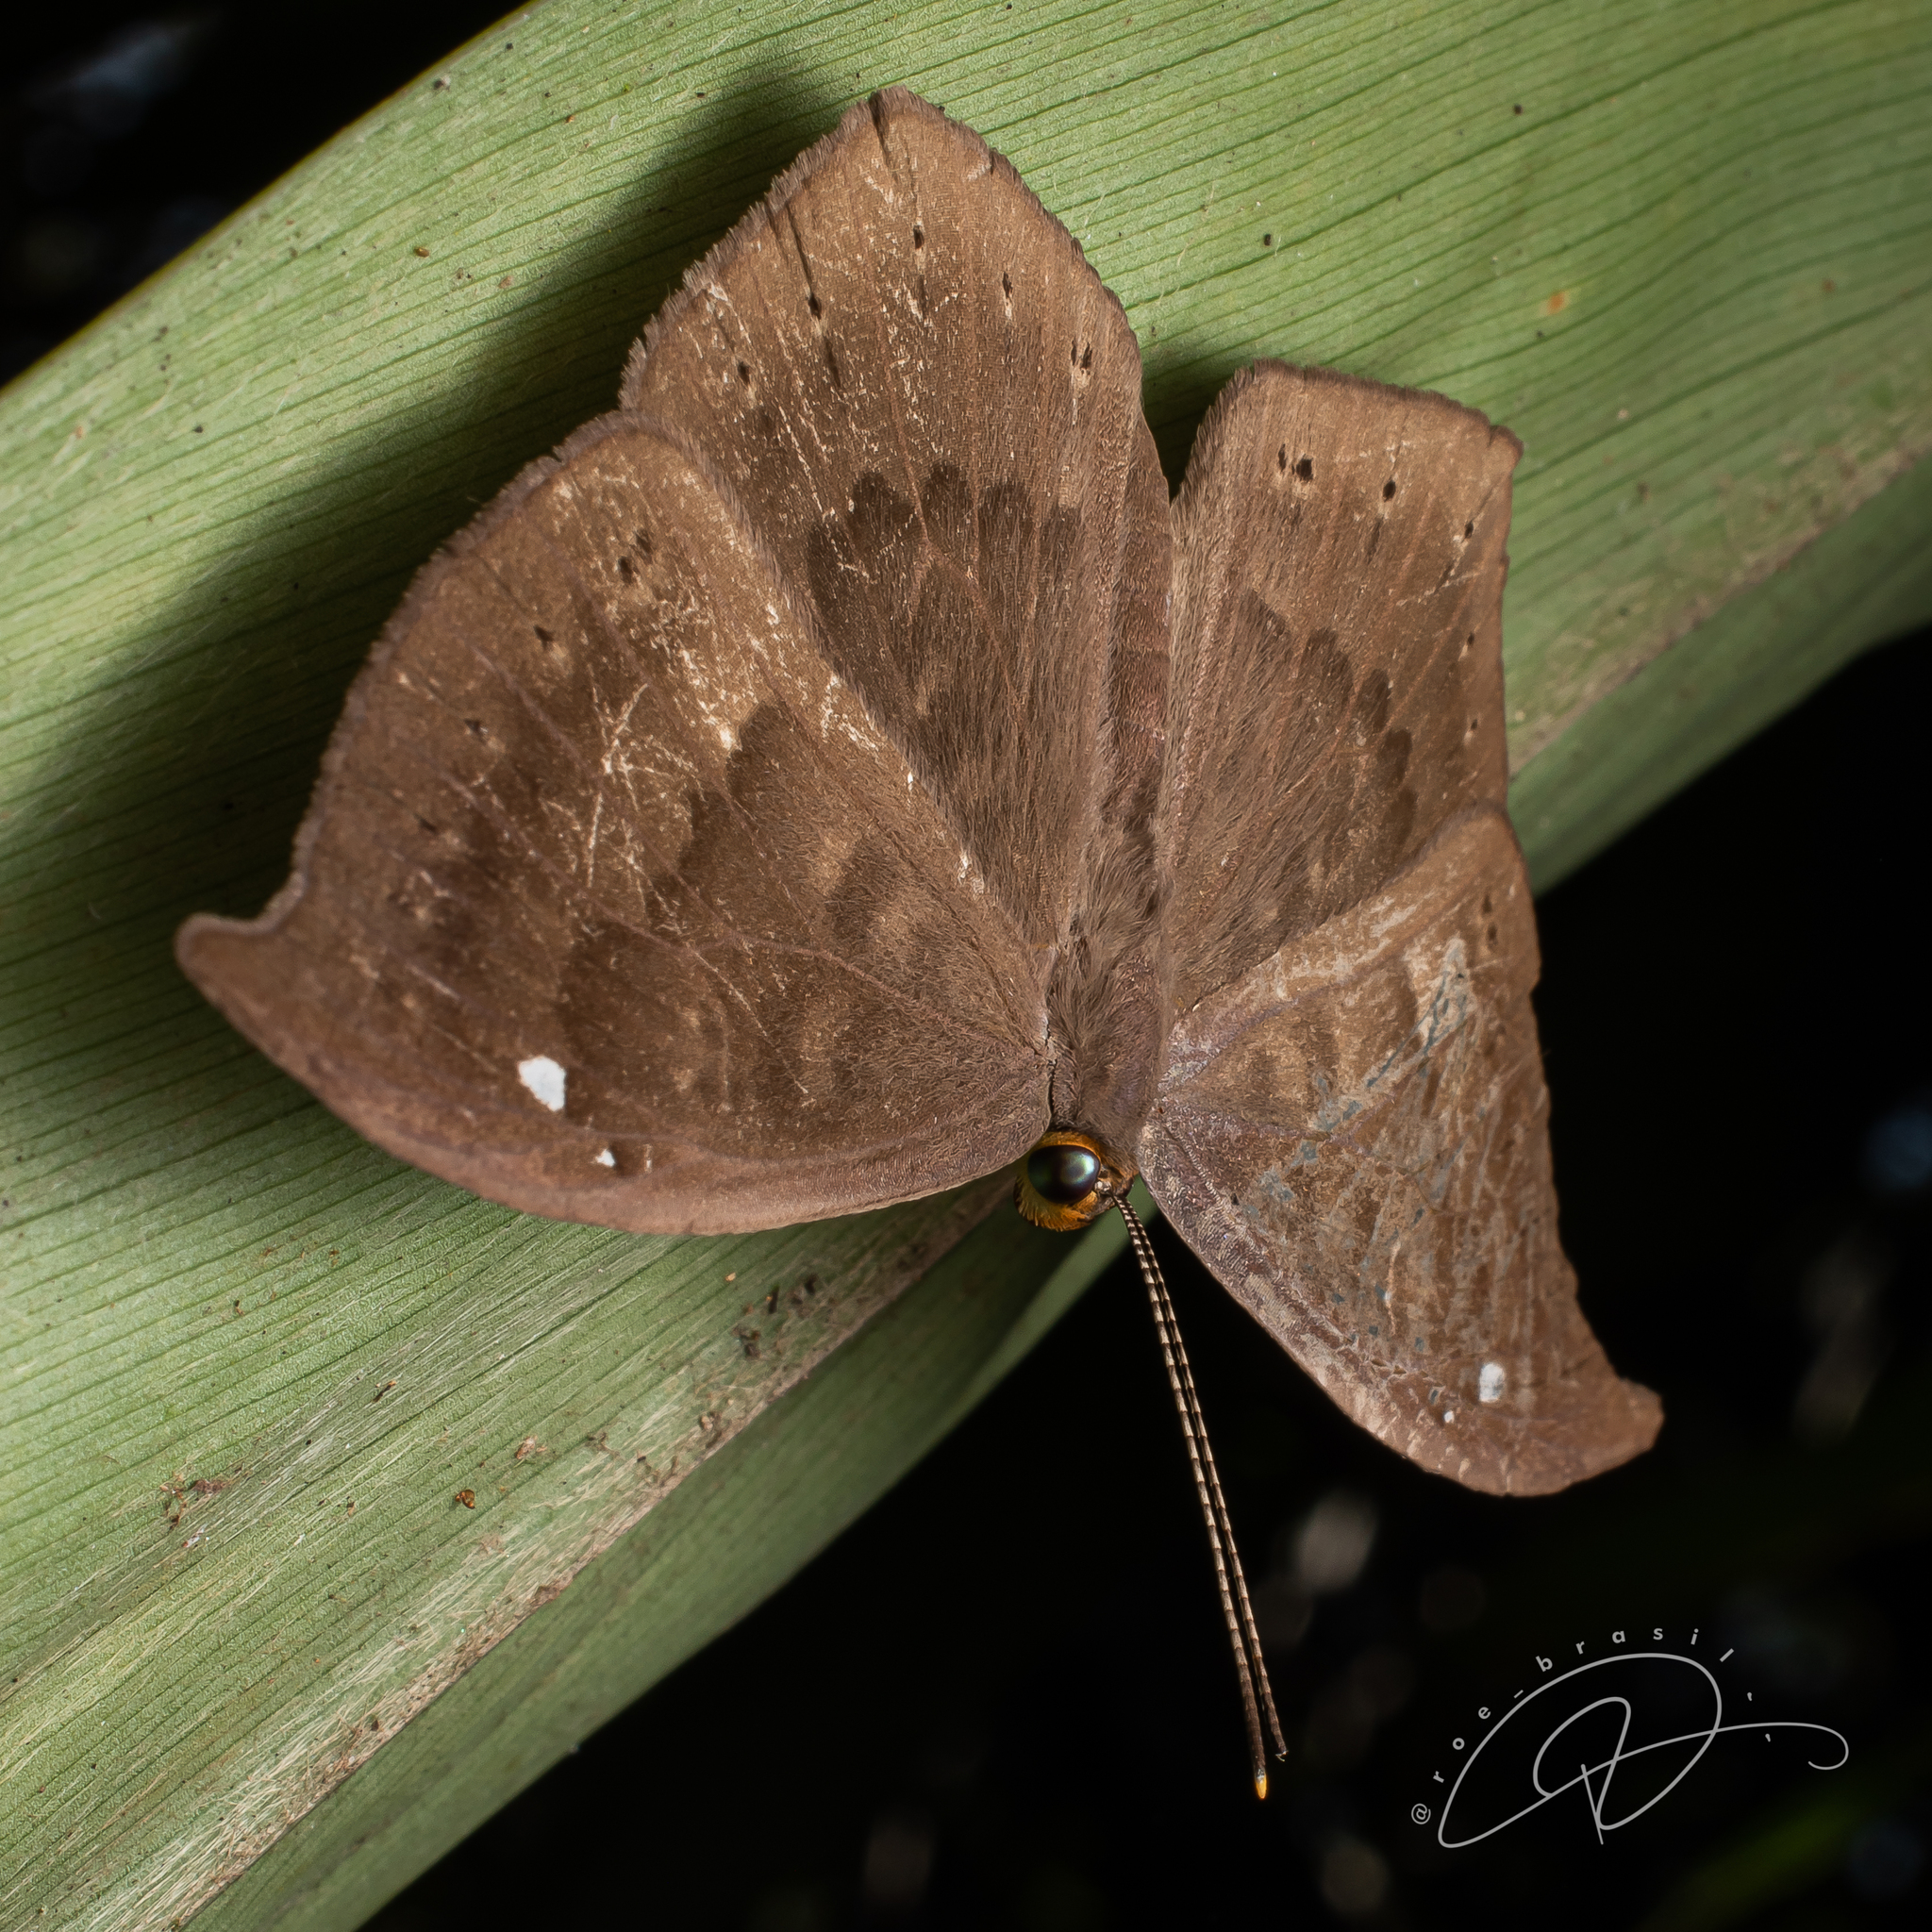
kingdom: Animalia
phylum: Cnidaria
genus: Eurybia
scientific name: Eurybia pergaea
